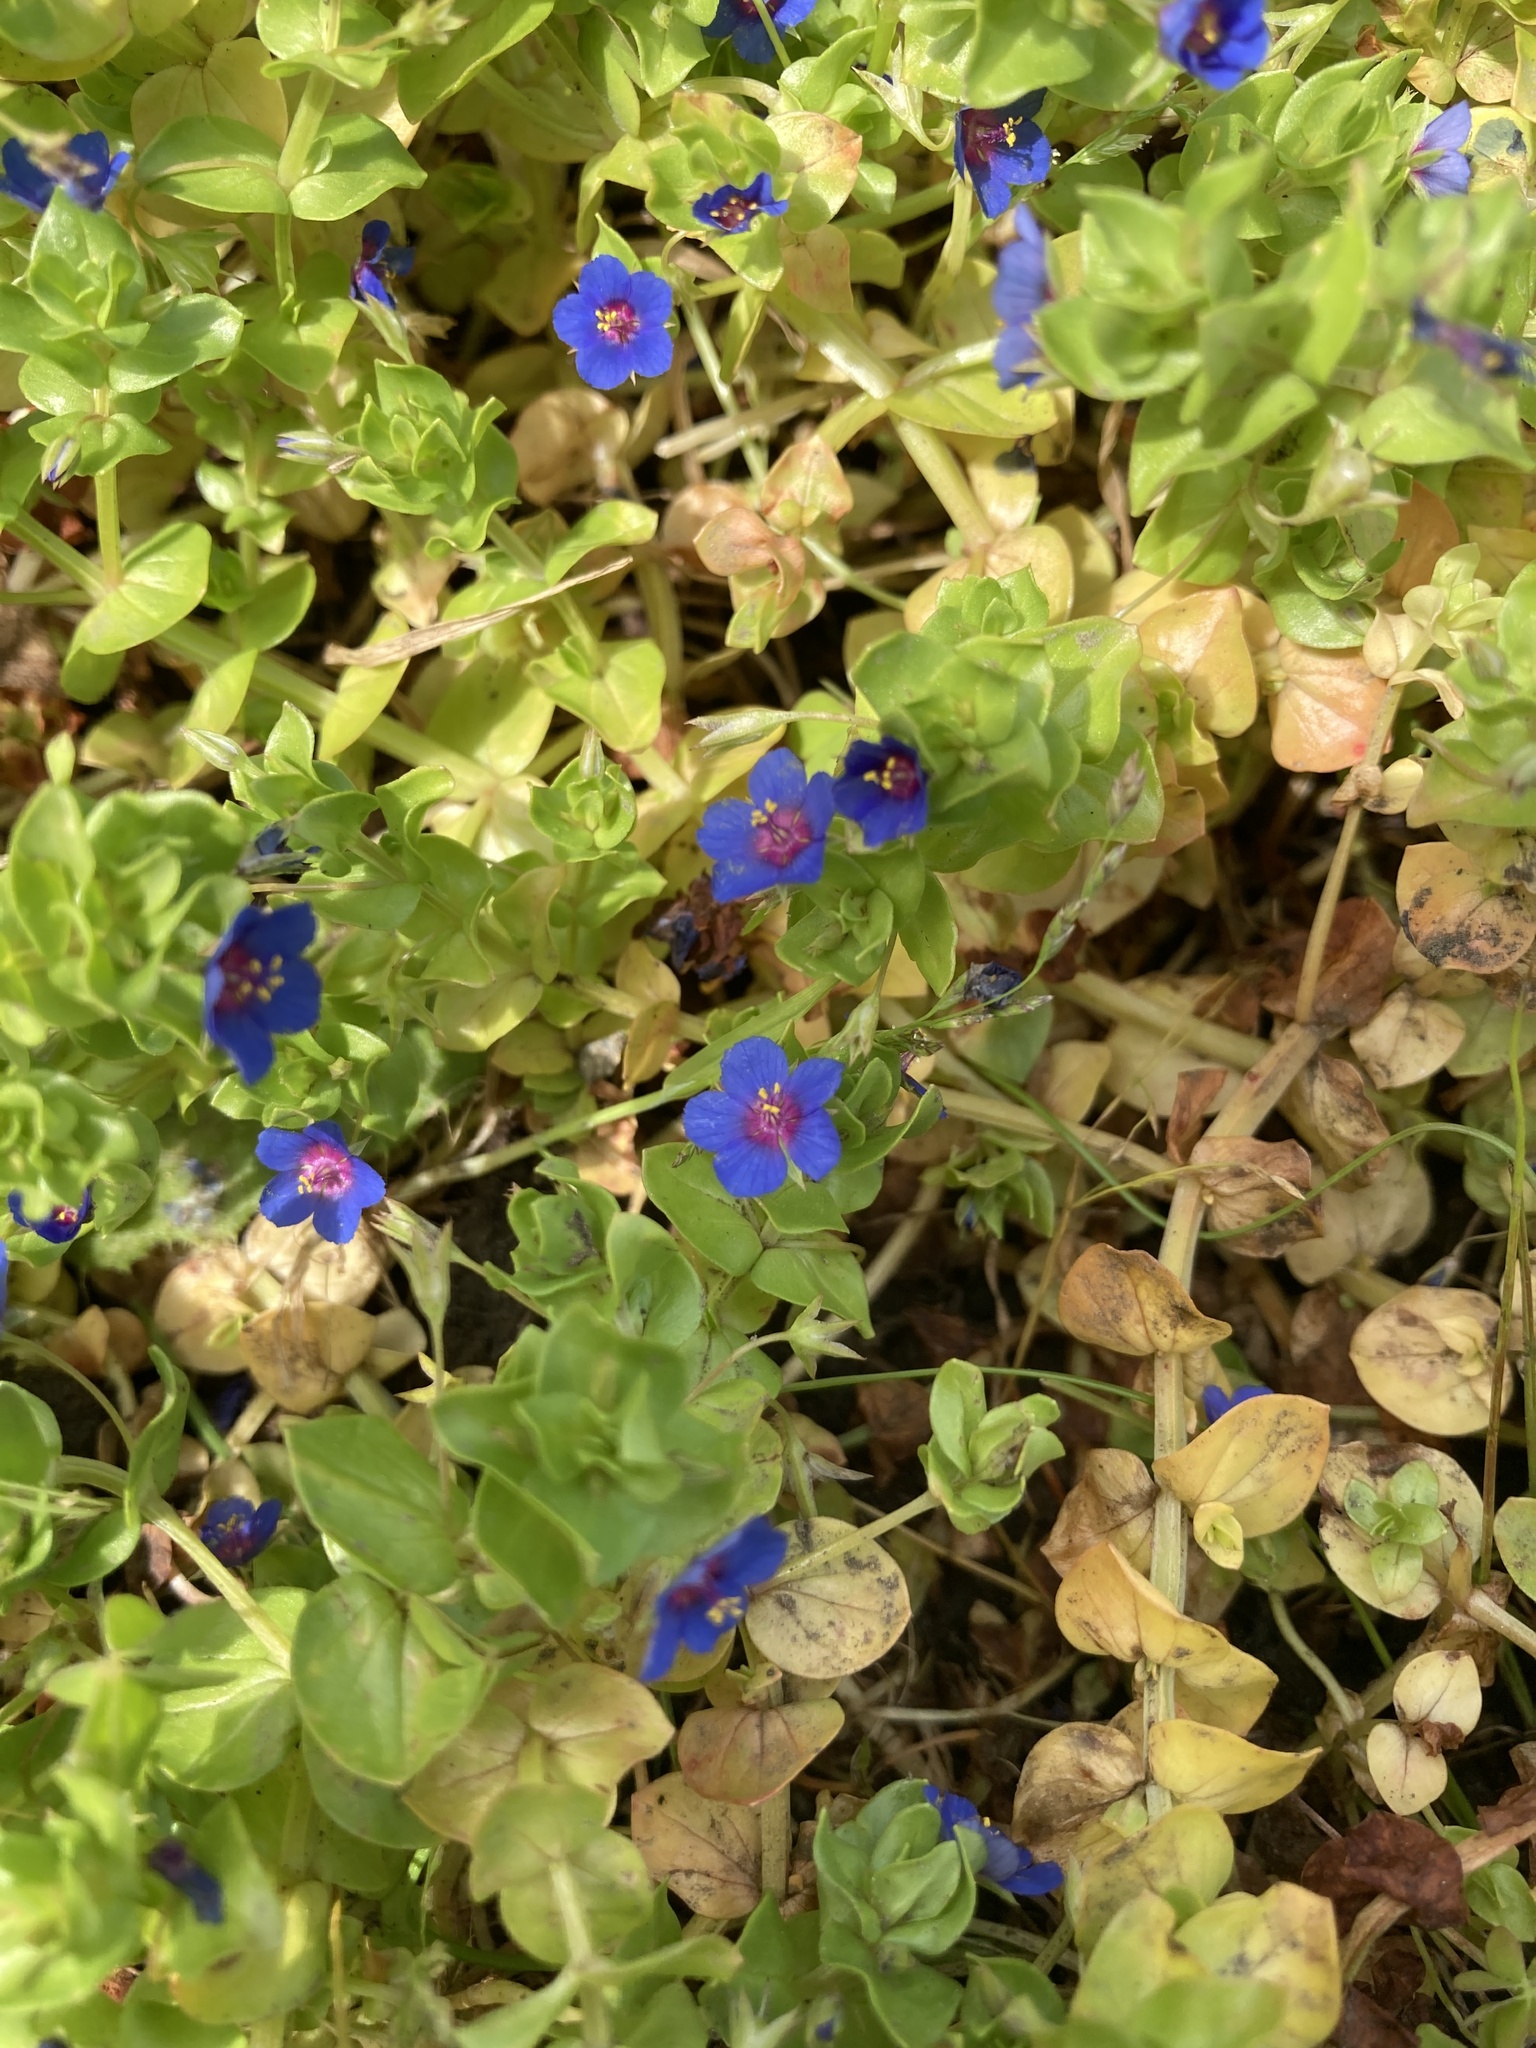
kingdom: Plantae
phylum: Tracheophyta
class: Magnoliopsida
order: Ericales
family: Primulaceae
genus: Lysimachia
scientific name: Lysimachia arvensis
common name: Scarlet pimpernel
